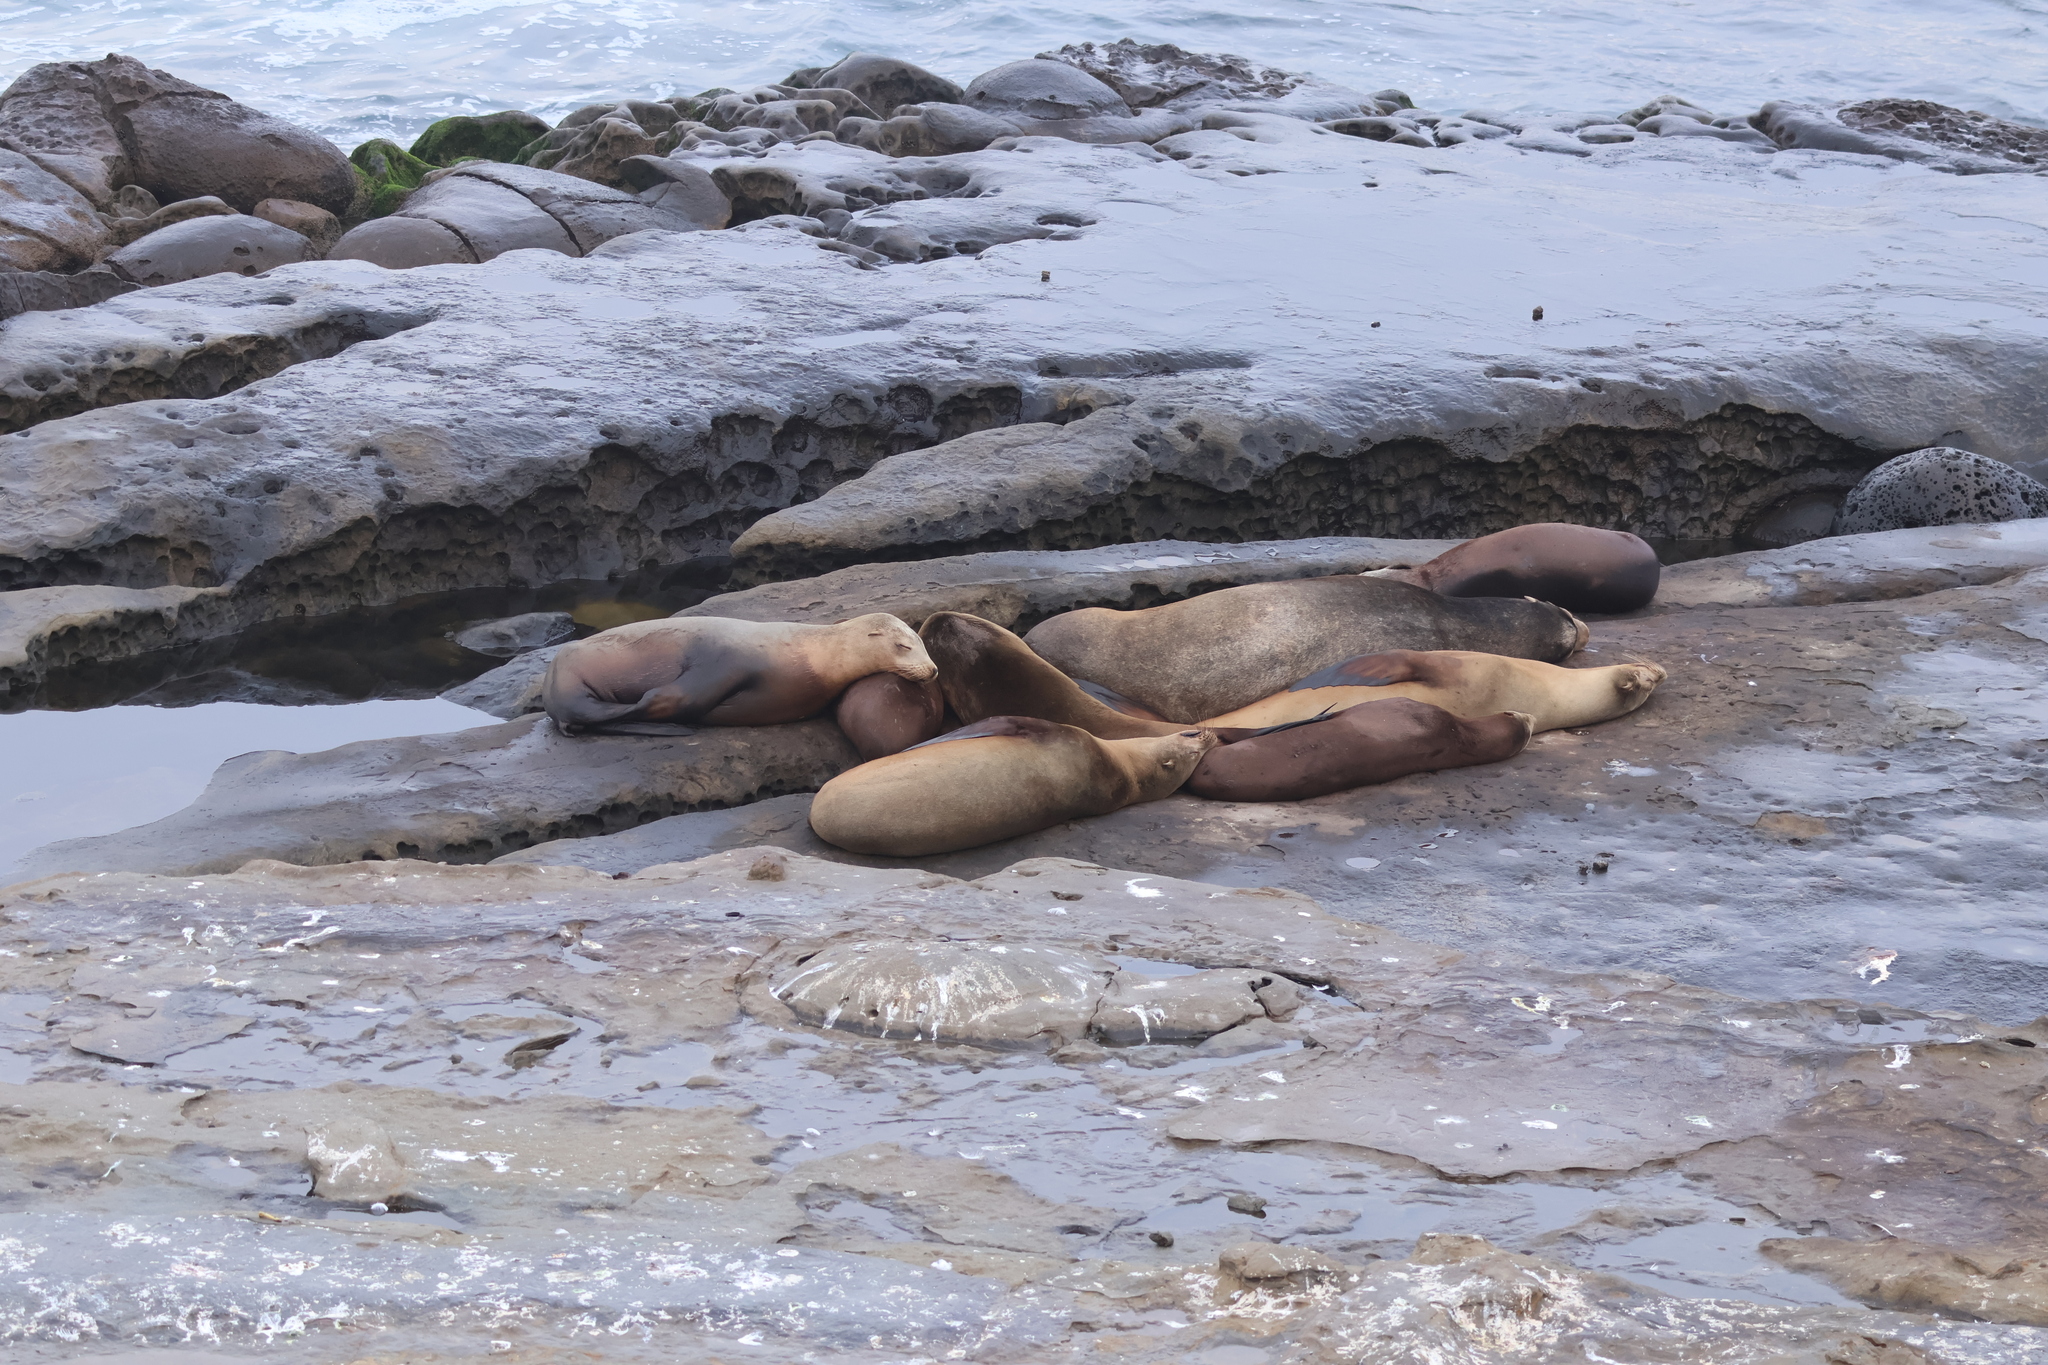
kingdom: Animalia
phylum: Chordata
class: Mammalia
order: Carnivora
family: Otariidae
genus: Zalophus
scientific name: Zalophus californianus
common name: California sea lion
